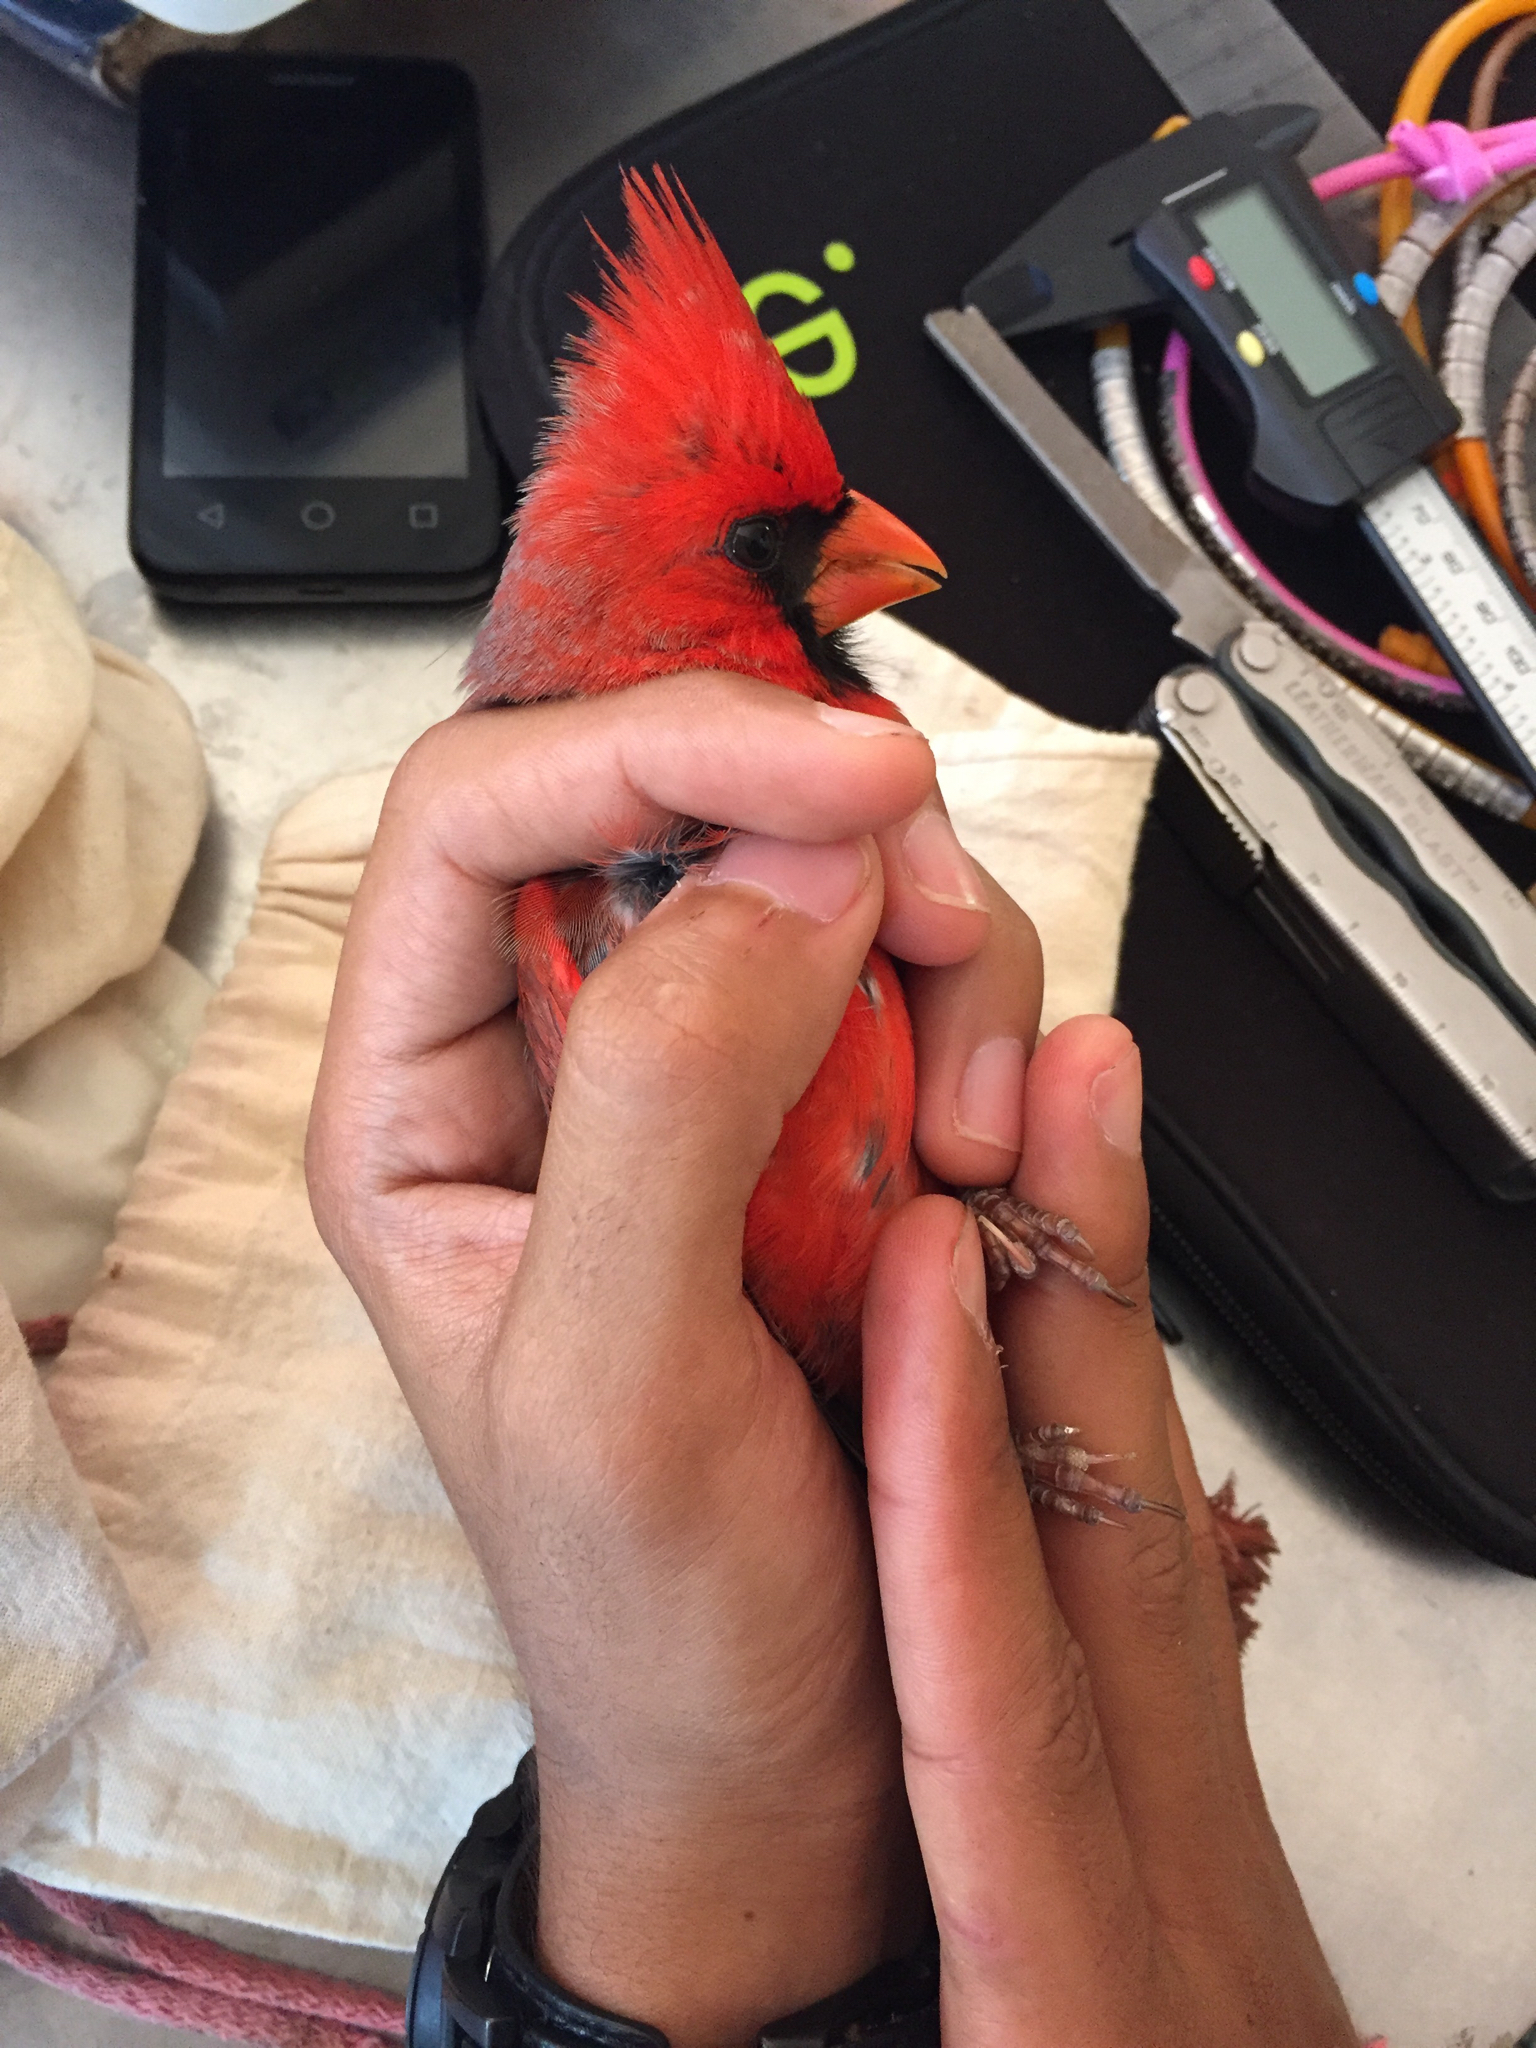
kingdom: Animalia
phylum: Chordata
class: Aves
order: Passeriformes
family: Cardinalidae
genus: Cardinalis
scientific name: Cardinalis cardinalis
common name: Northern cardinal
